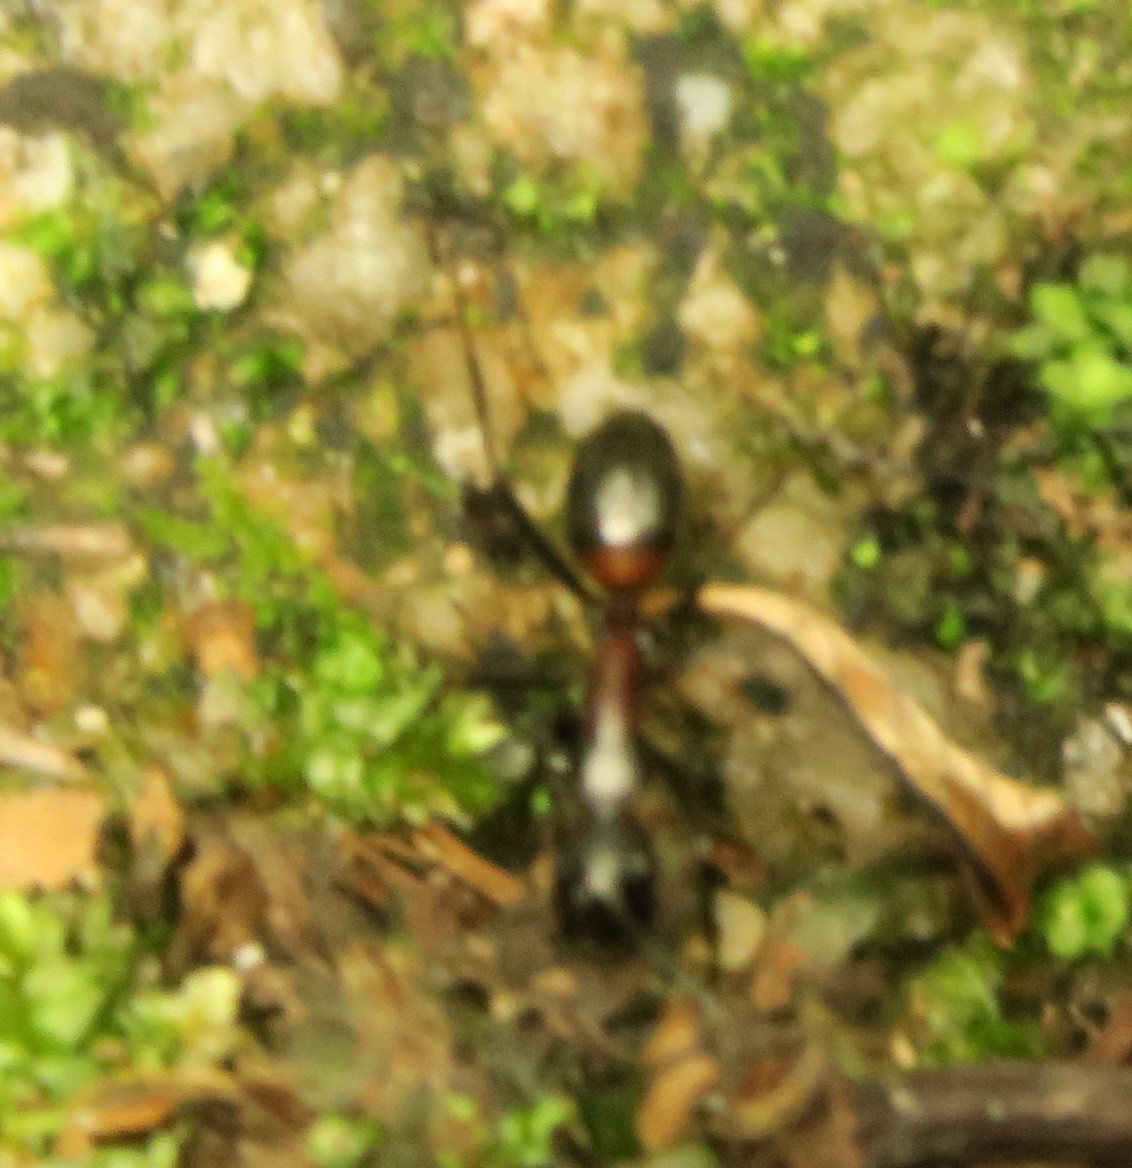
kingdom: Animalia
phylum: Arthropoda
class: Insecta
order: Hymenoptera
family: Formicidae
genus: Camponotus
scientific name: Camponotus hemichlaena
